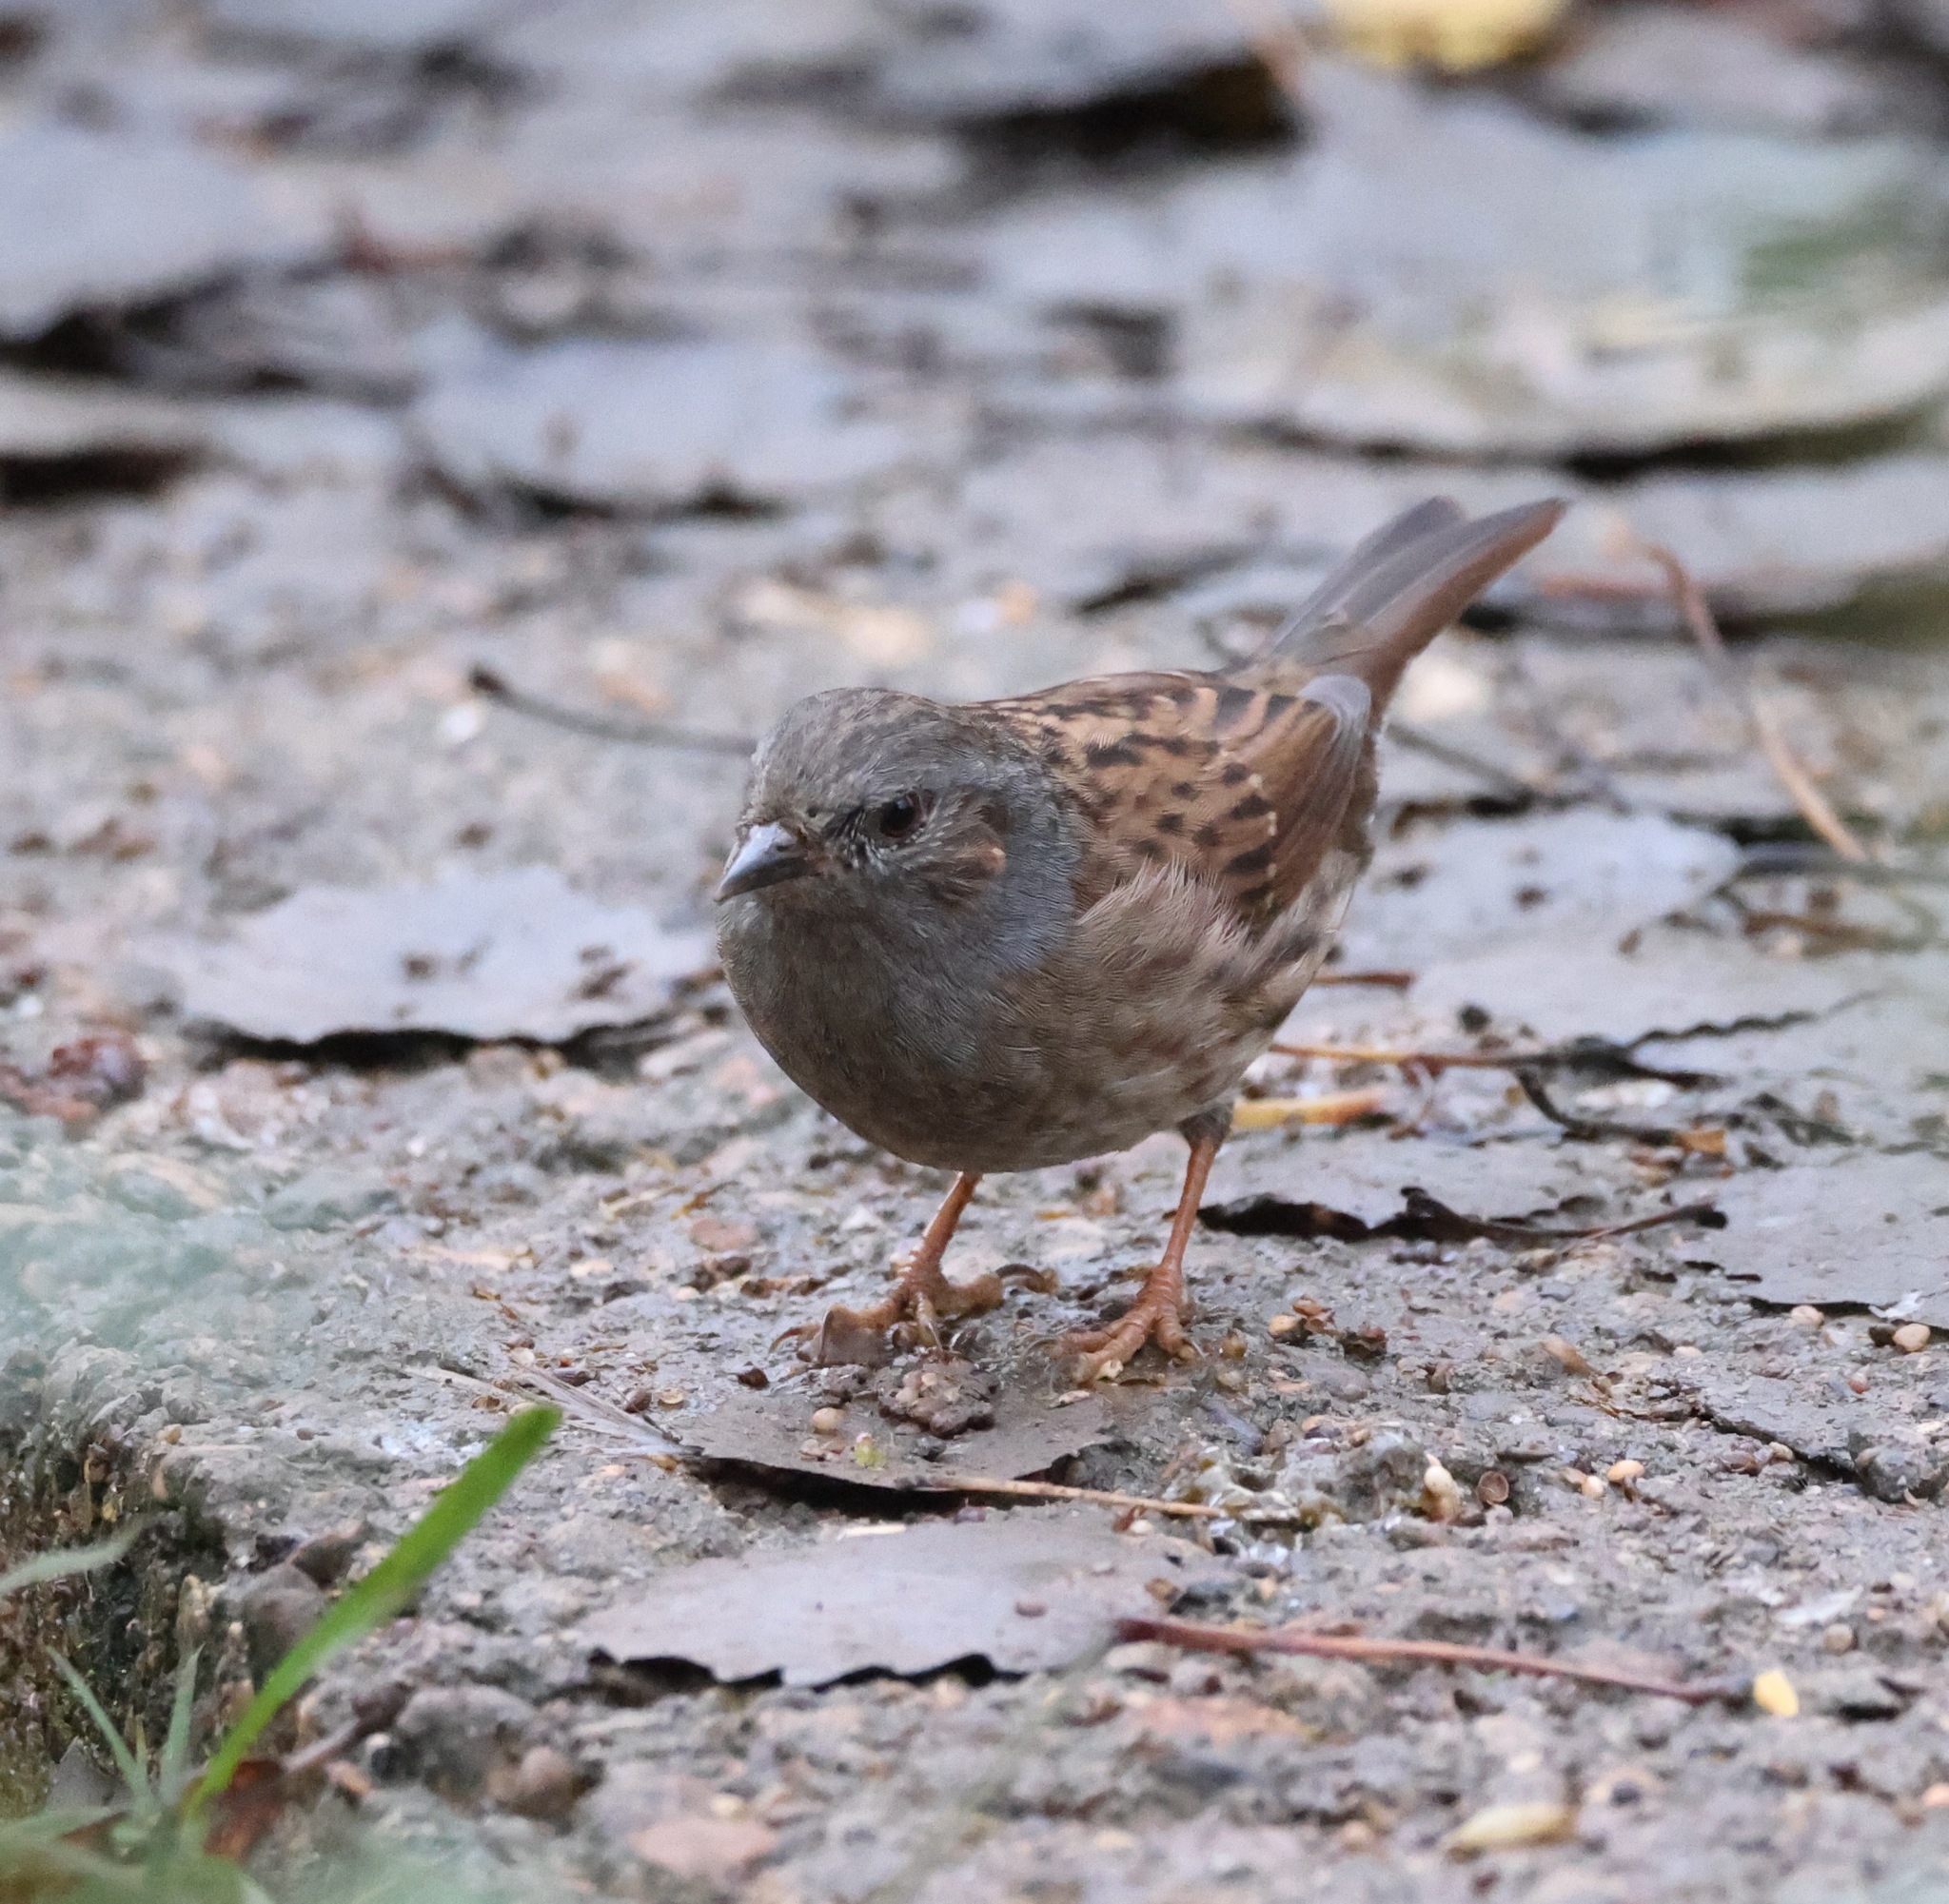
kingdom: Animalia
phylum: Chordata
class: Aves
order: Passeriformes
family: Prunellidae
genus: Prunella
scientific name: Prunella modularis
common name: Dunnock
